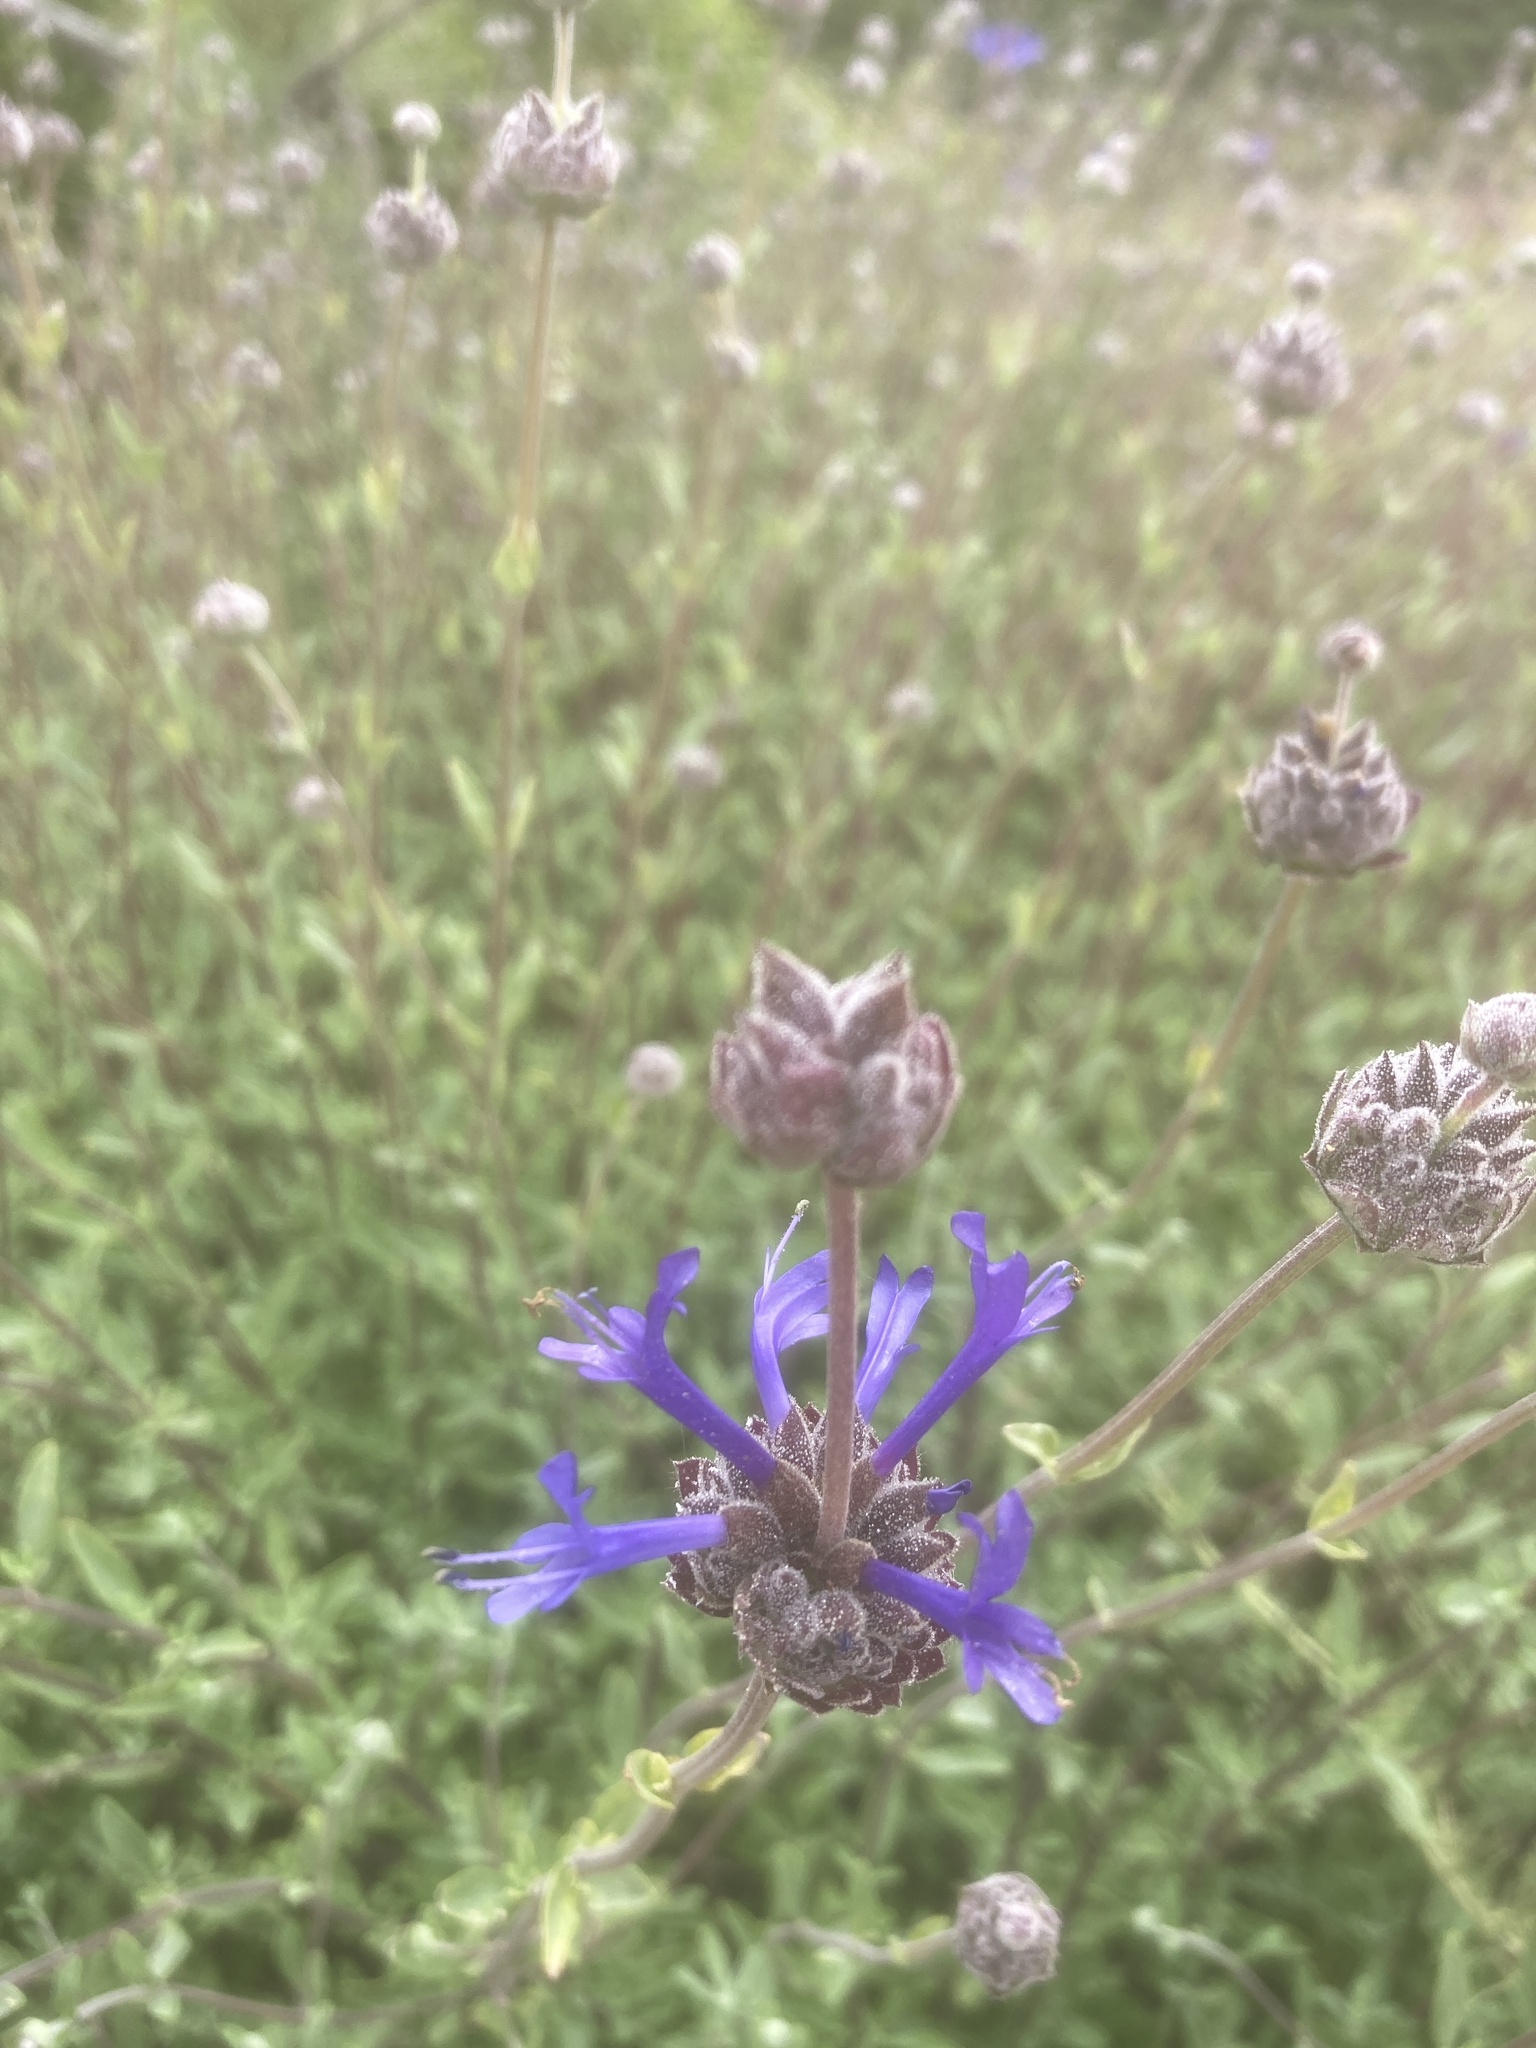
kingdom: Plantae
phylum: Tracheophyta
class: Magnoliopsida
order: Lamiales
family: Lamiaceae
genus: Salvia
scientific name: Salvia clevelandii
